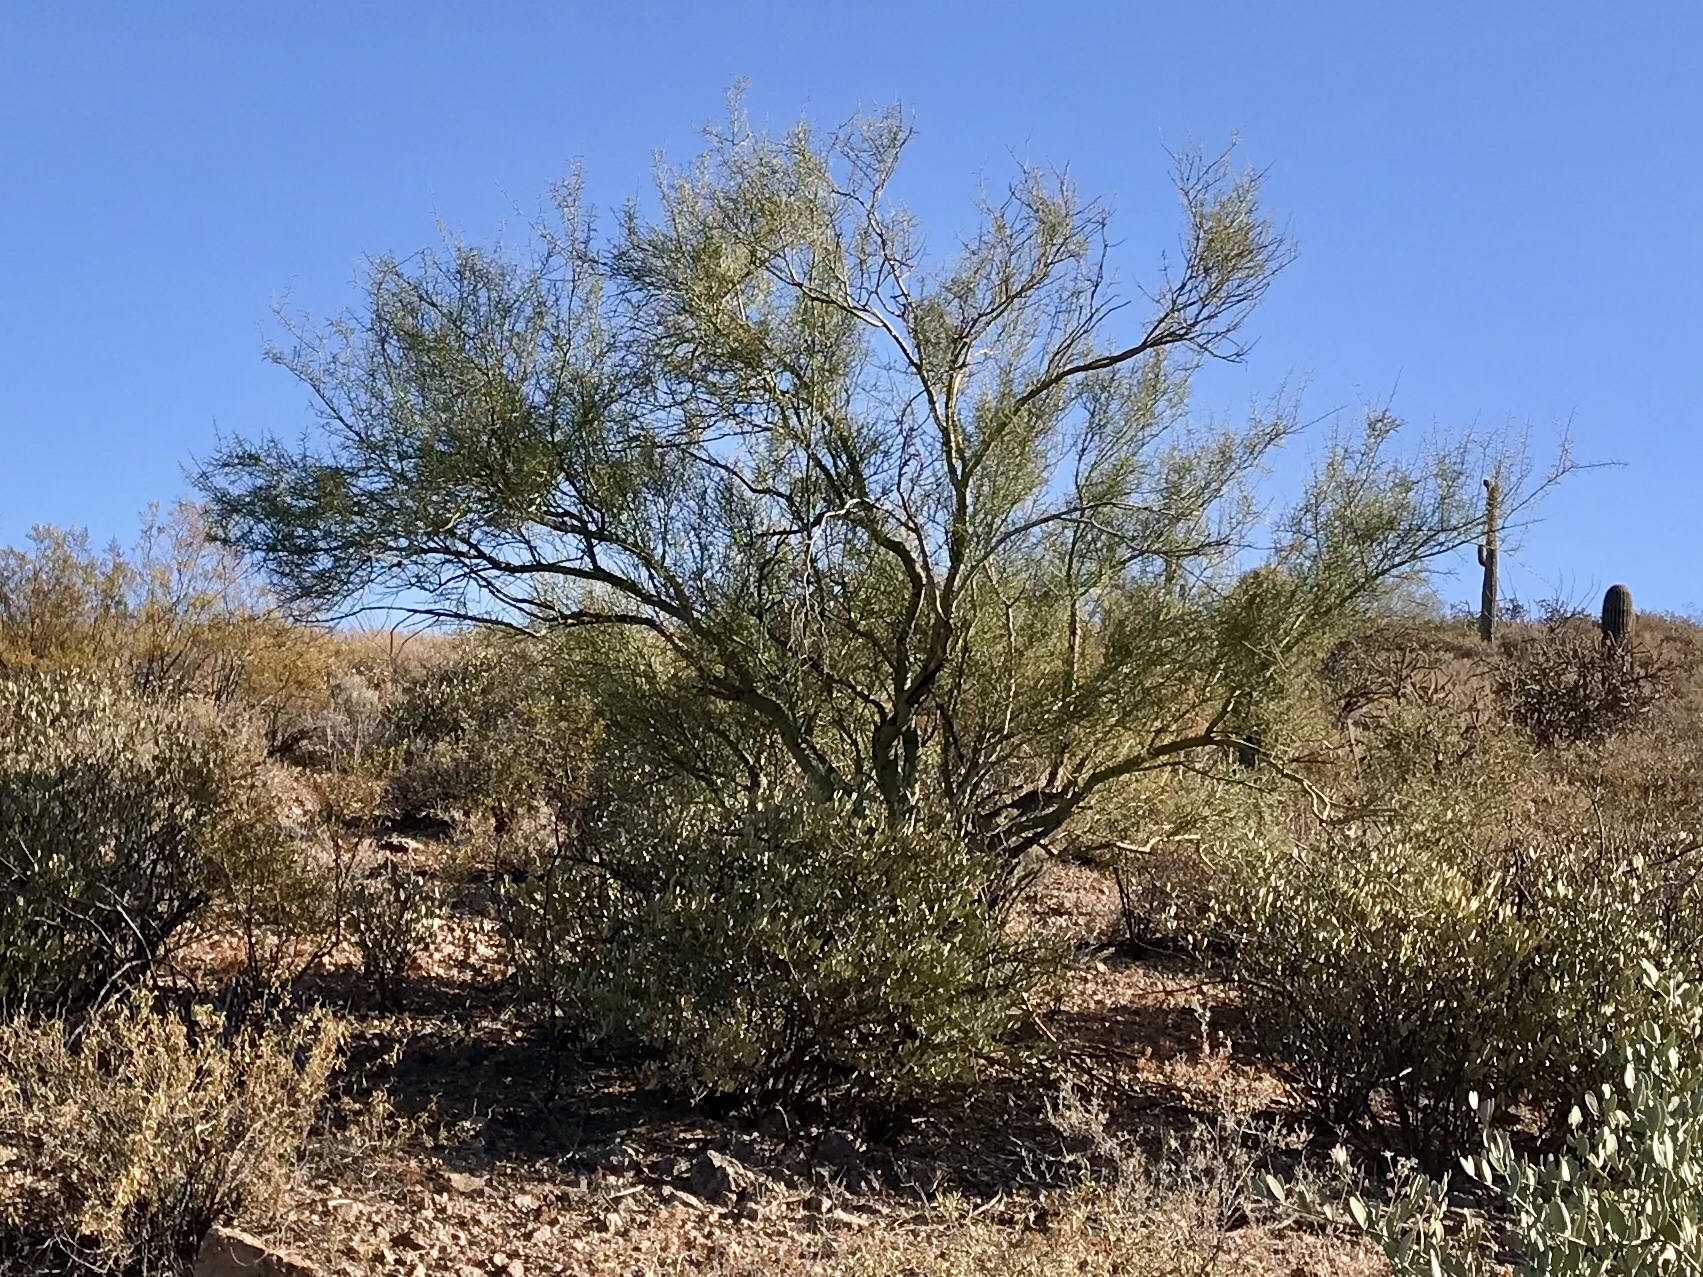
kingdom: Plantae
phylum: Tracheophyta
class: Magnoliopsida
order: Fabales
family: Fabaceae
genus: Parkinsonia
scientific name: Parkinsonia microphylla
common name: Yellow paloverde
